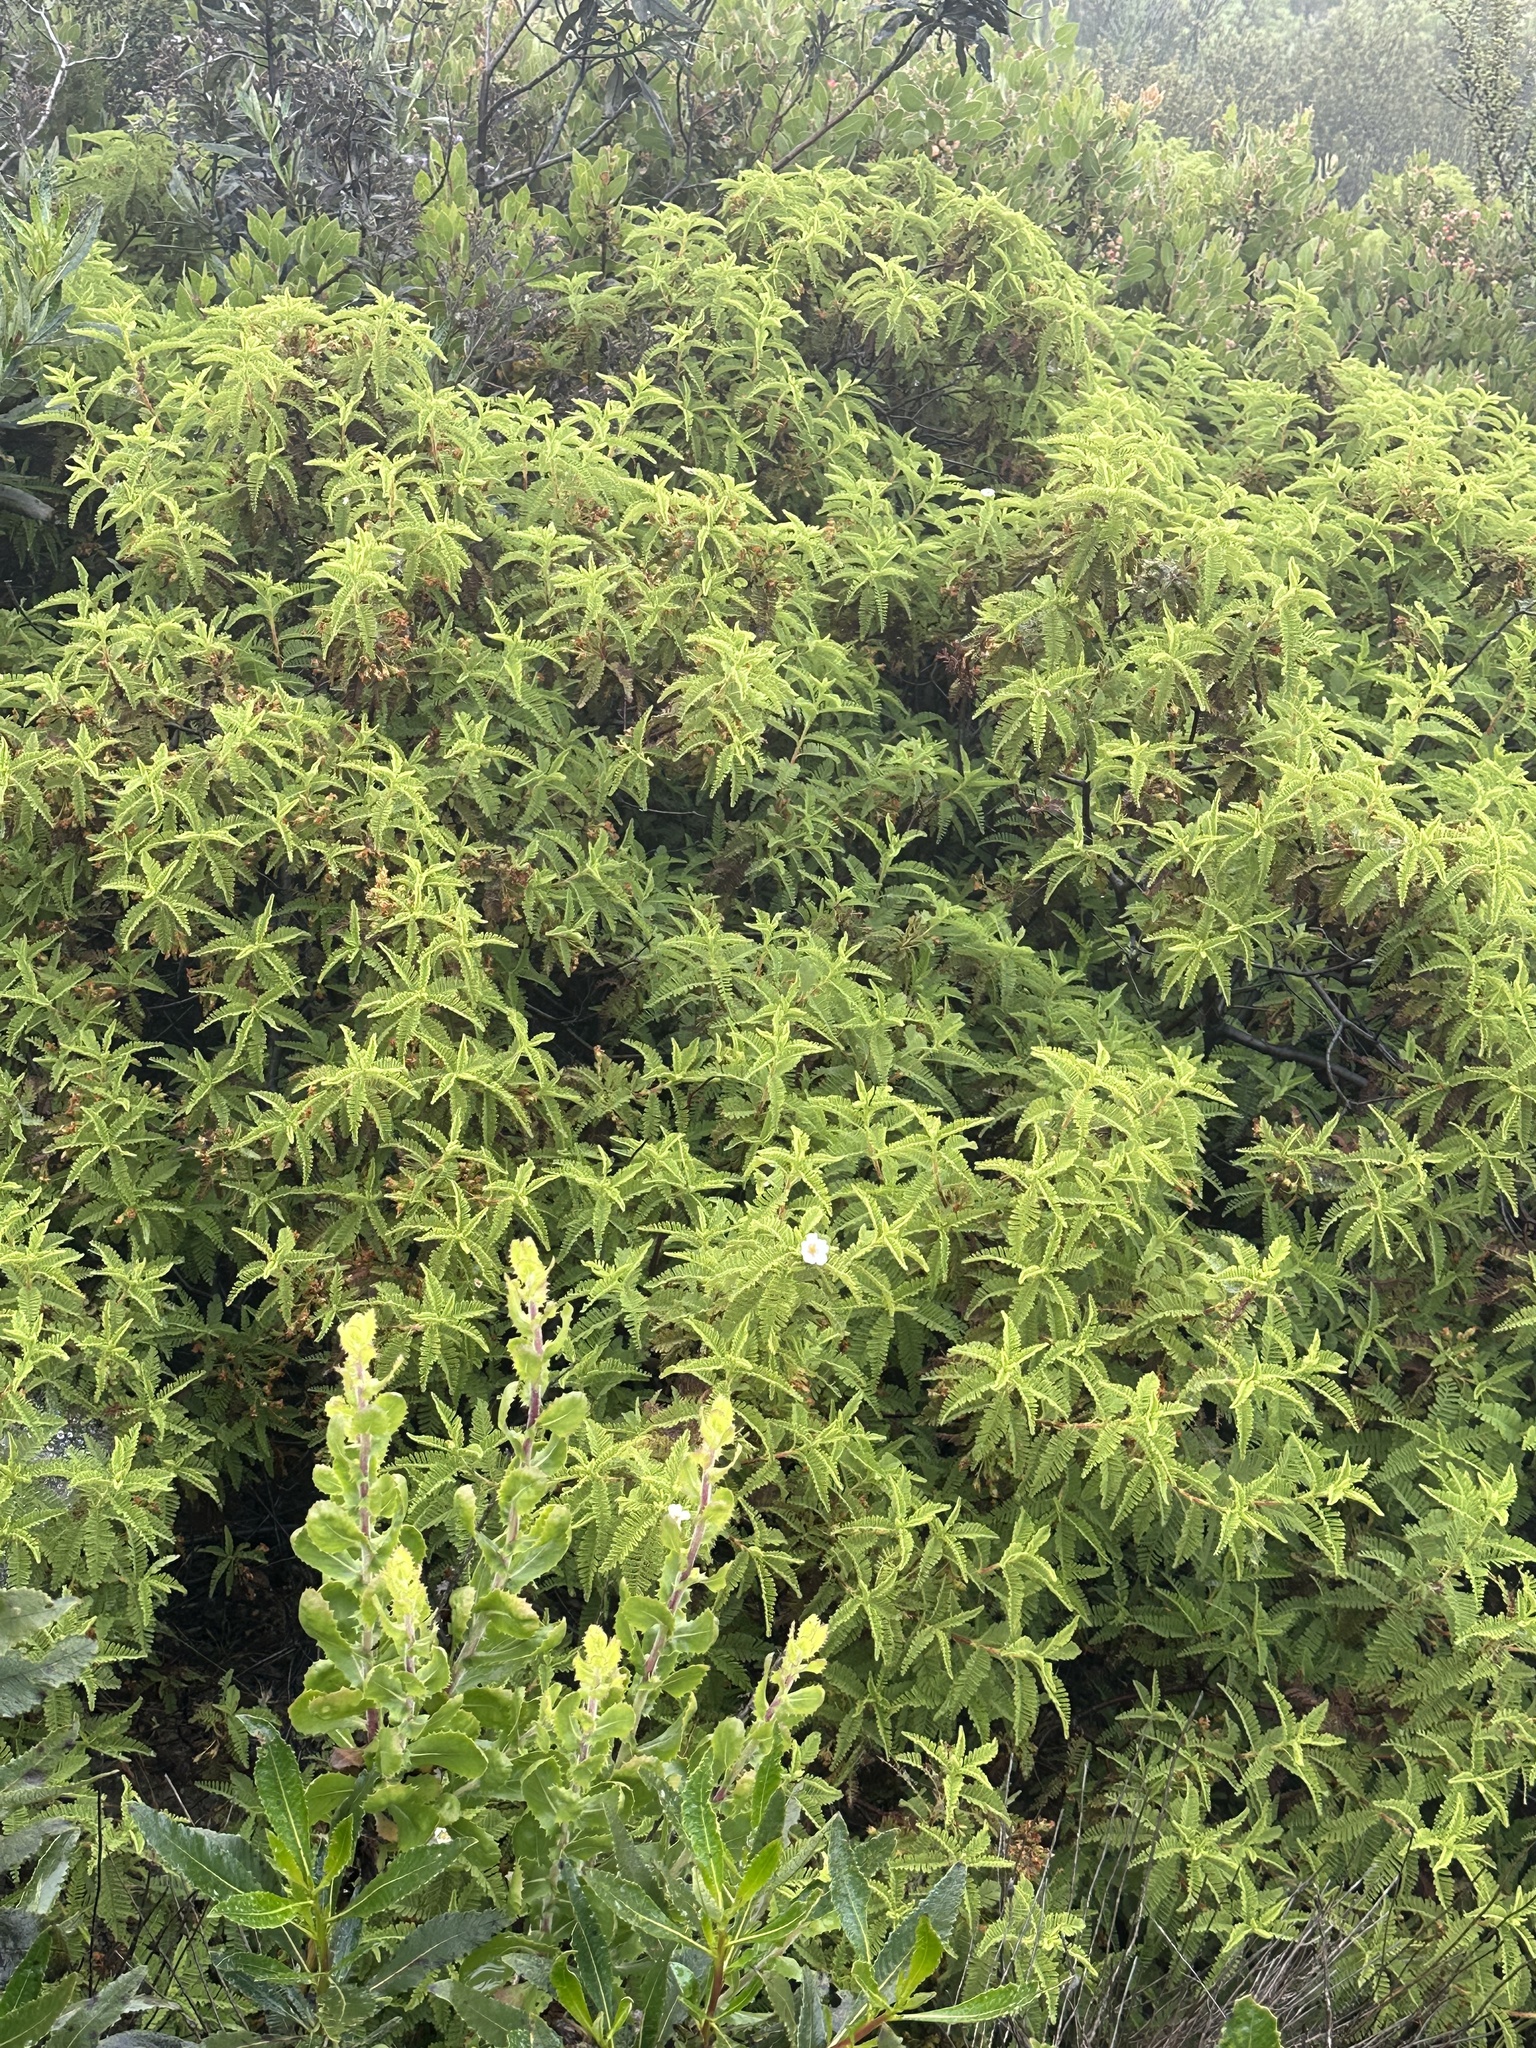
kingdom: Plantae
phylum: Tracheophyta
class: Magnoliopsida
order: Rosales
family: Rosaceae
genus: Chamaebatia
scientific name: Chamaebatia australis
